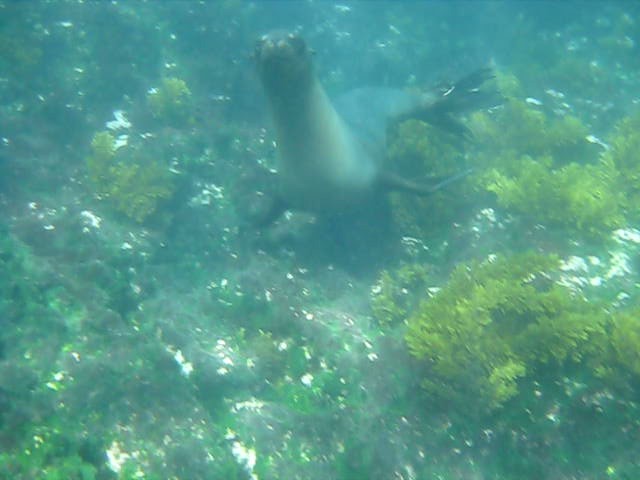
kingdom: Animalia
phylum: Chordata
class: Mammalia
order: Carnivora
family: Otariidae
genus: Zalophus
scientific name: Zalophus wollebaeki
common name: Galapagos sea lion
